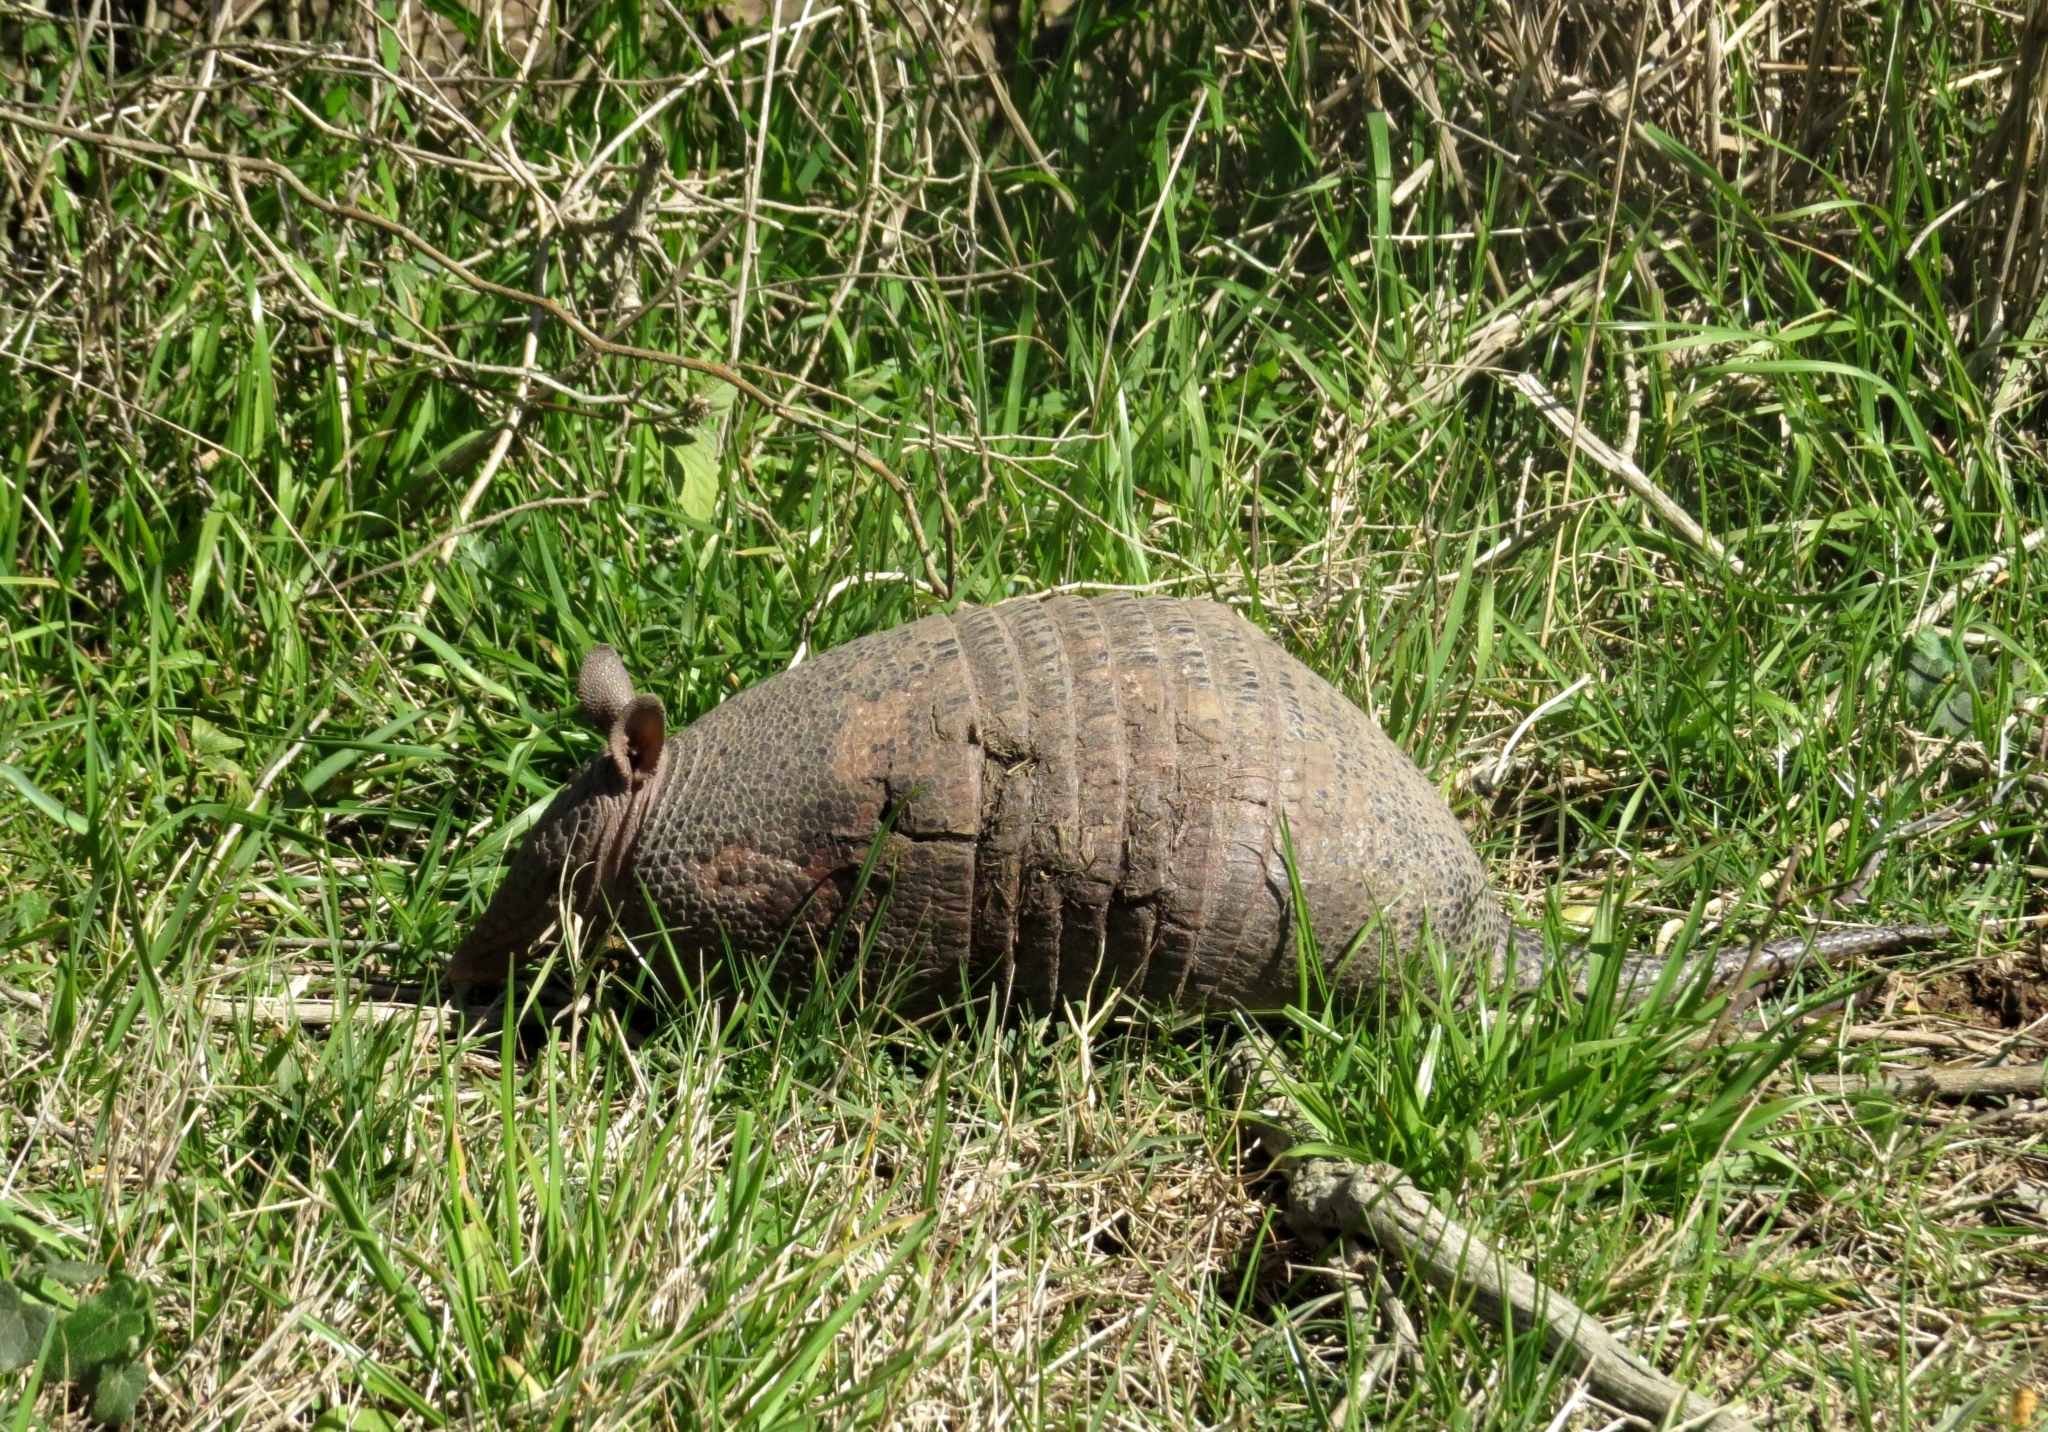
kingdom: Animalia
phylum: Chordata
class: Mammalia
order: Cingulata
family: Dasypodidae
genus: Dasypus
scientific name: Dasypus septemcinctus
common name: Seven-banded armadillo
